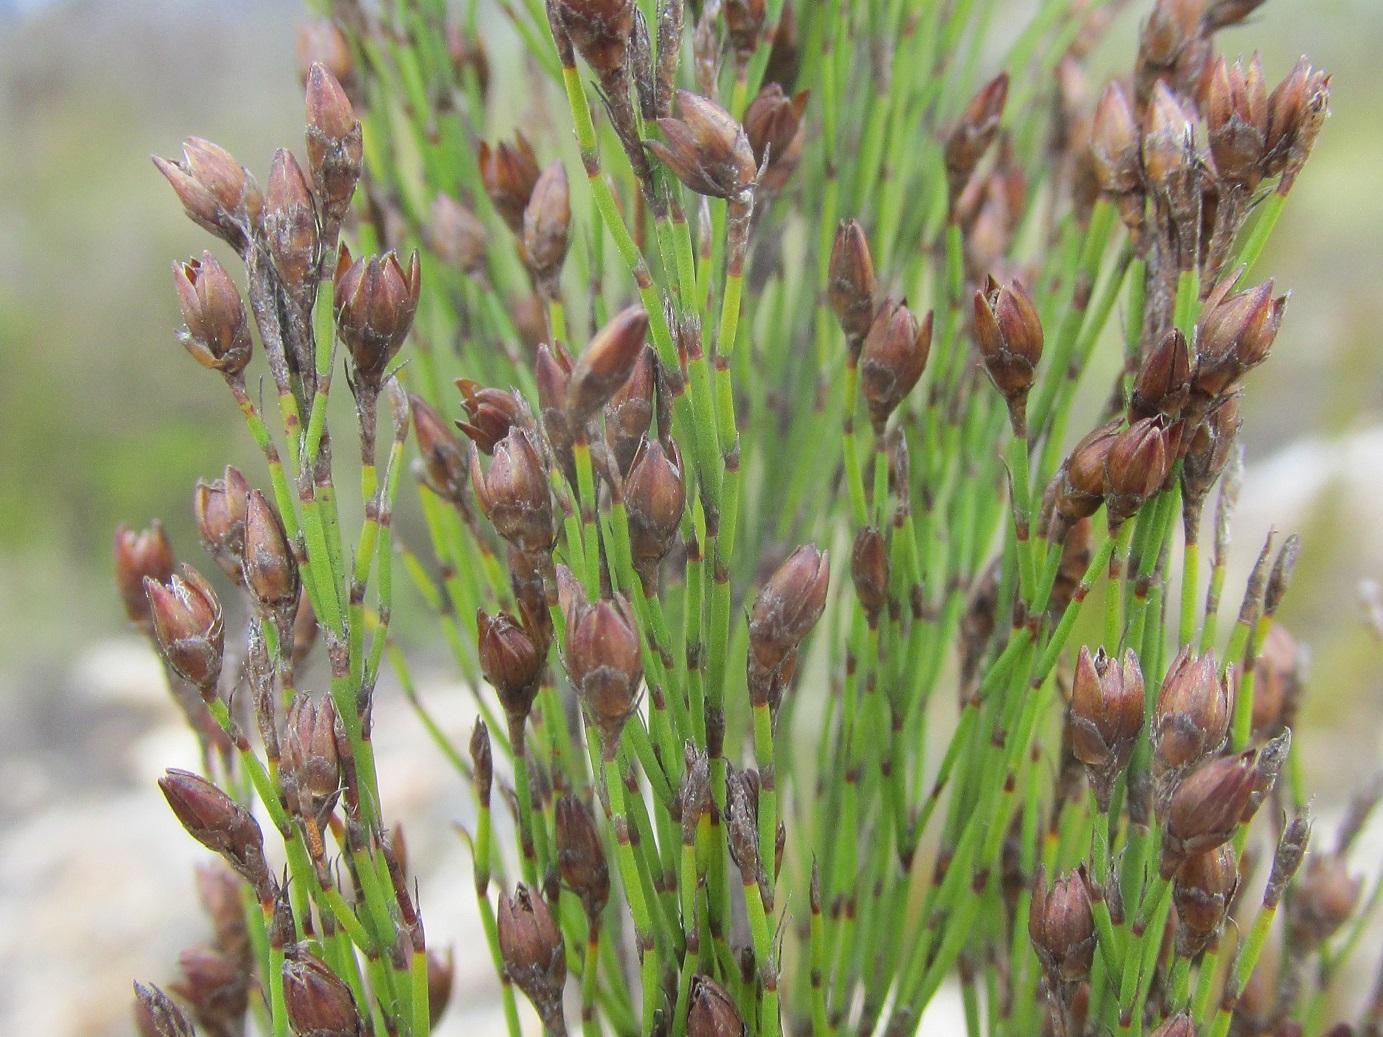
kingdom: Plantae
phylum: Tracheophyta
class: Liliopsida
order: Poales
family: Restionaceae
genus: Rhodocoma
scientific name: Rhodocoma capensis
